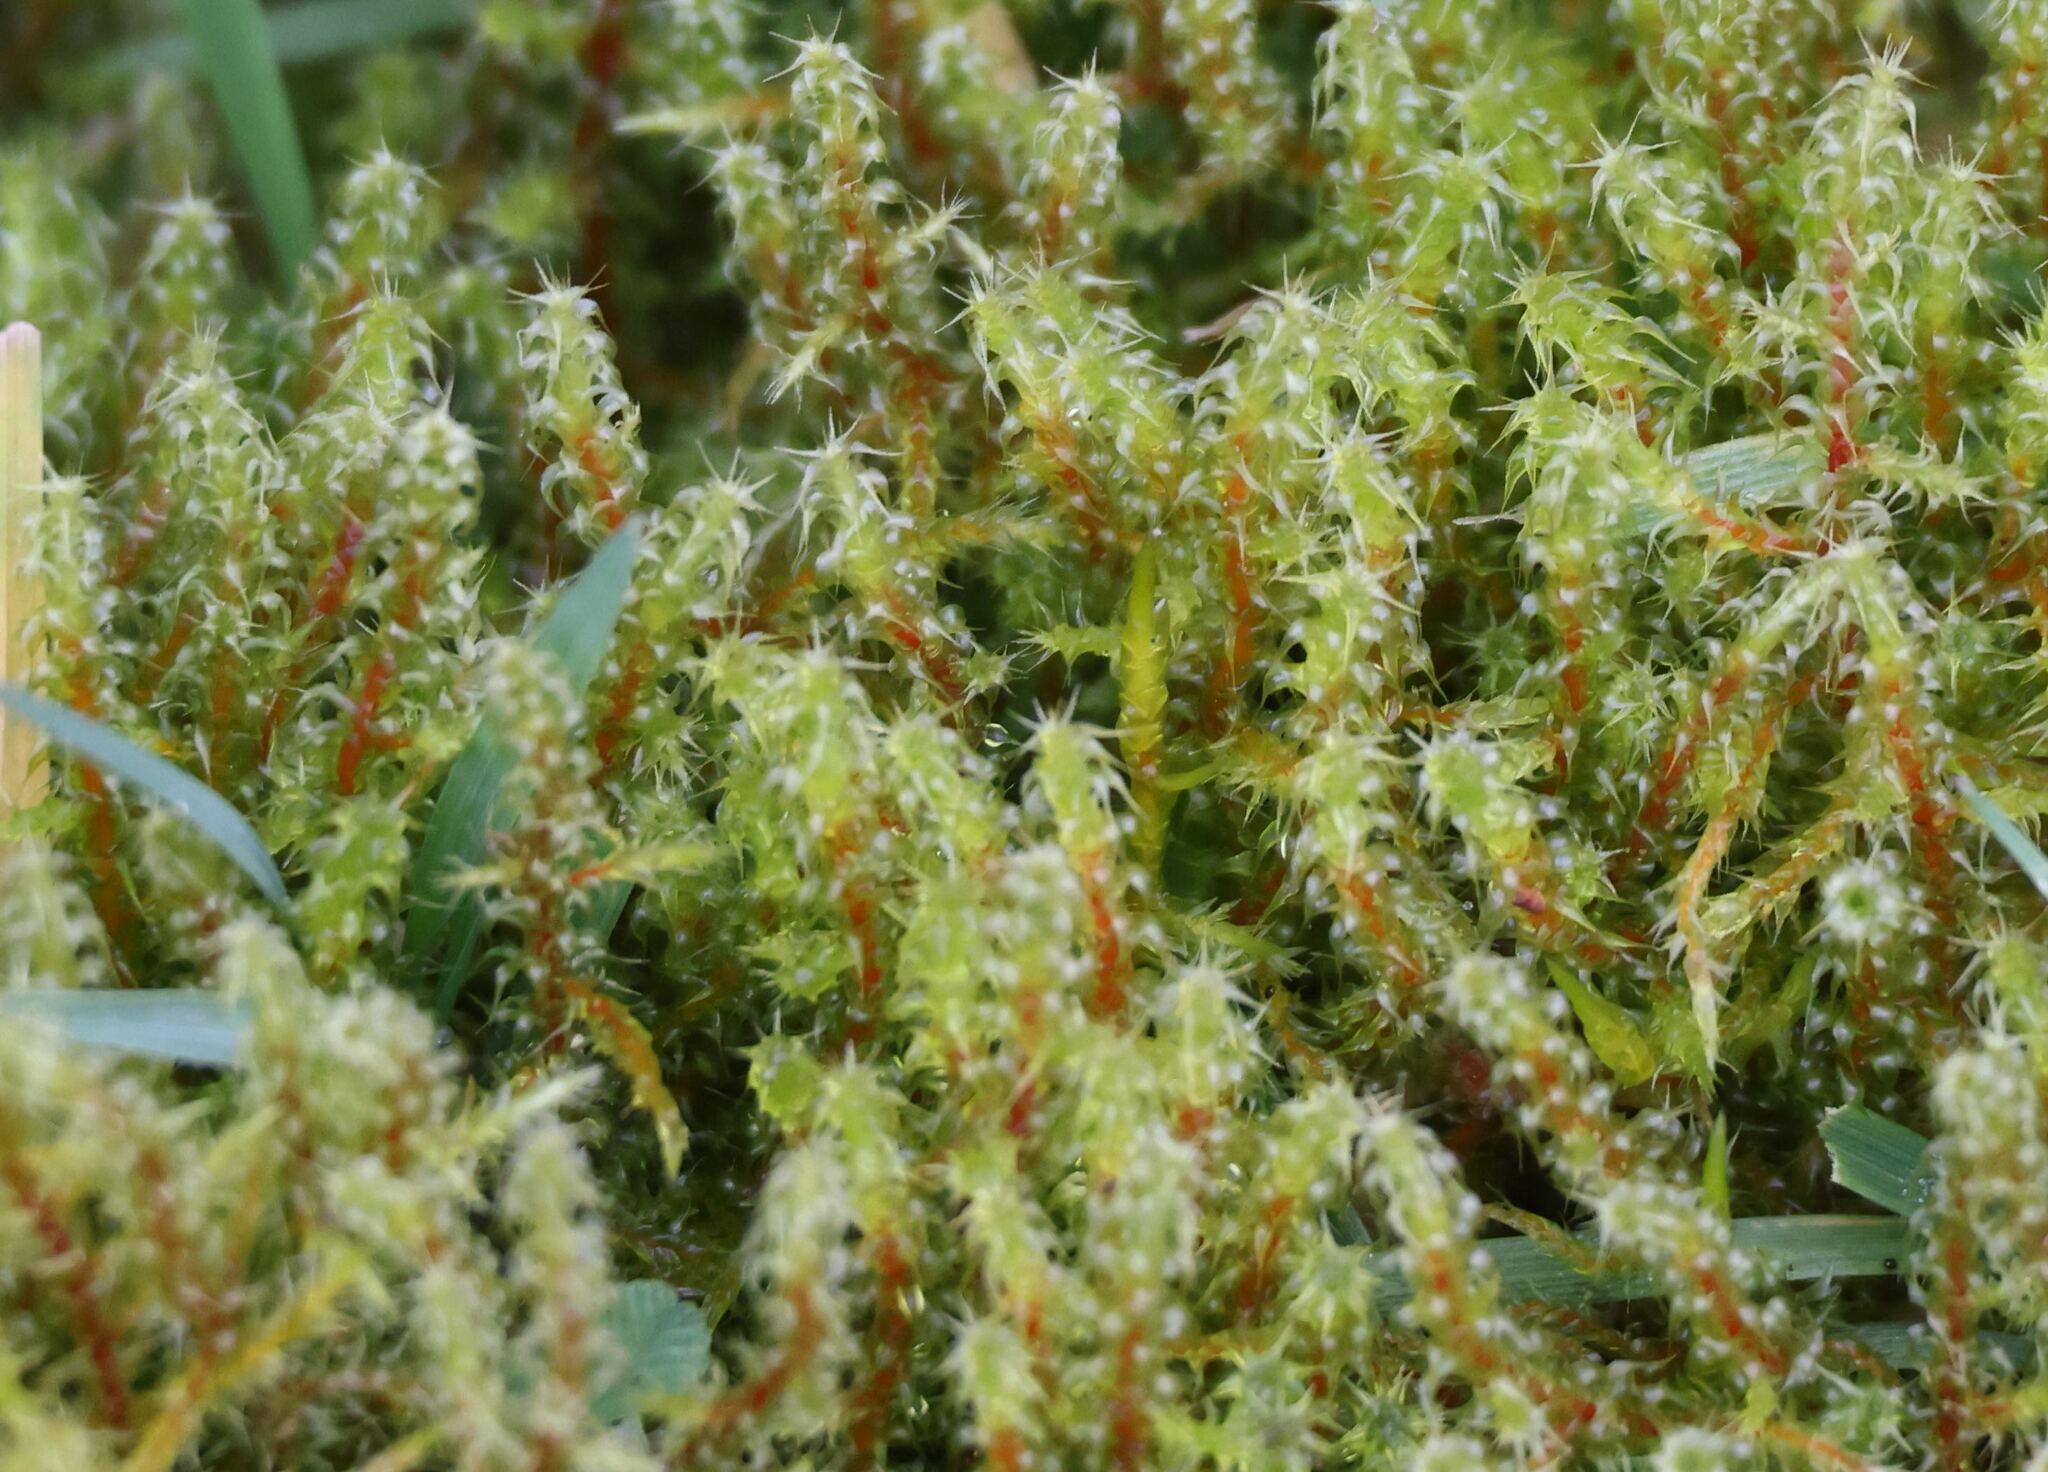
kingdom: Plantae
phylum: Bryophyta
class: Bryopsida
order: Hypnales
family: Hylocomiaceae
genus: Rhytidiadelphus
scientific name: Rhytidiadelphus squarrosus
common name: Springy turf-moss
